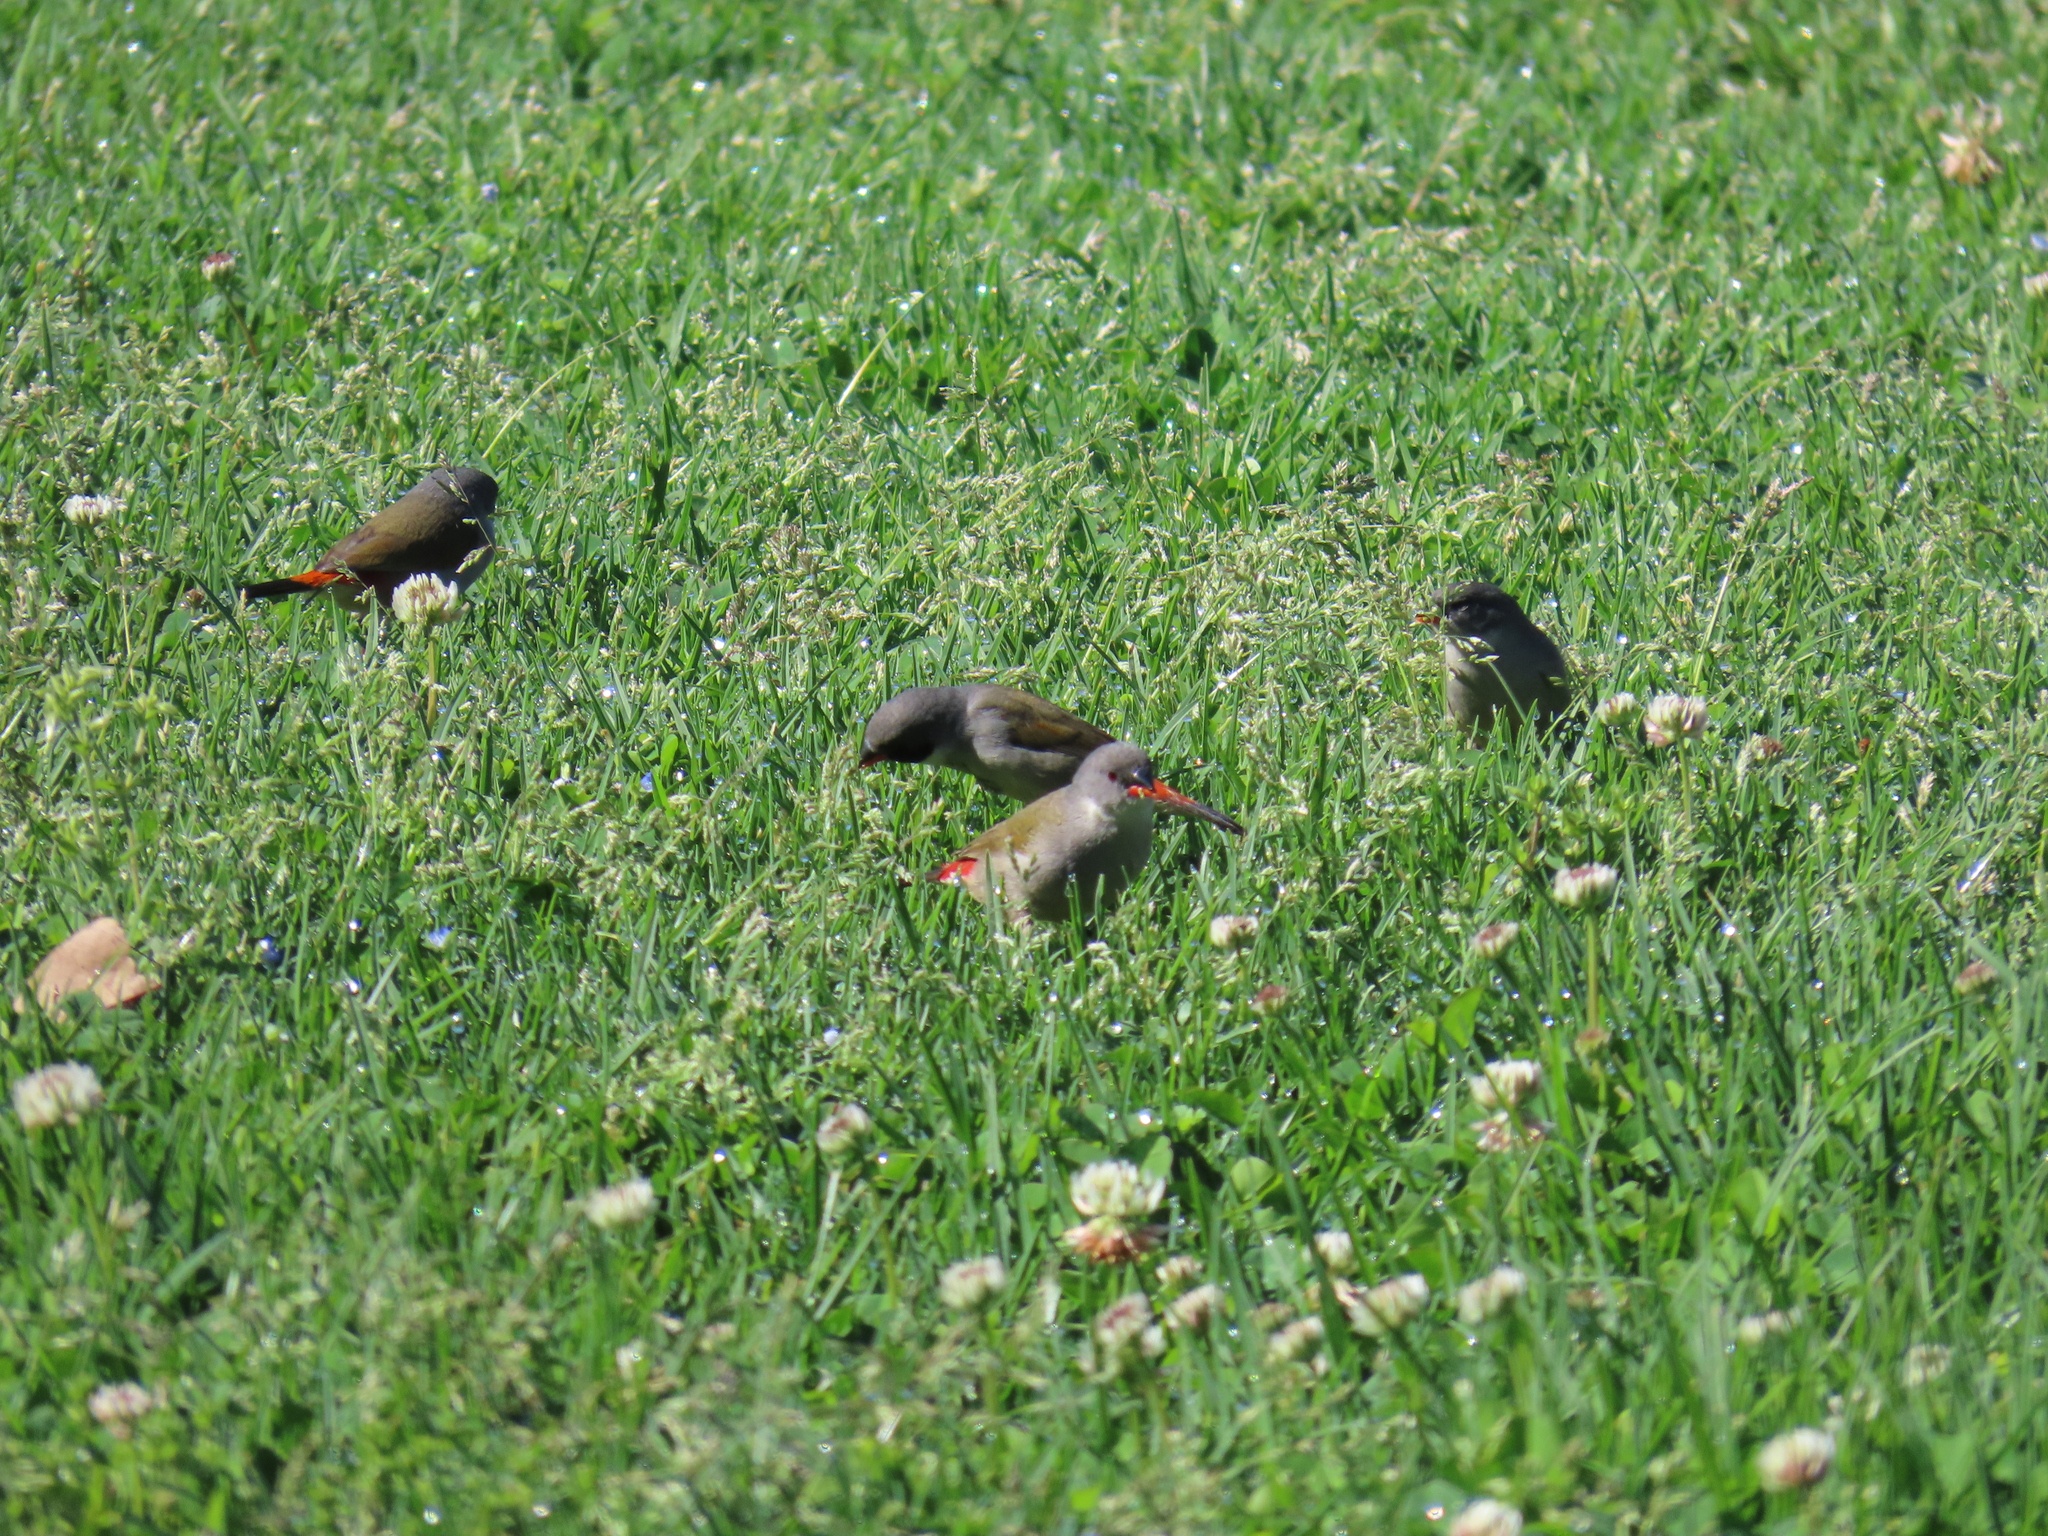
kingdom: Animalia
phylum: Chordata
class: Aves
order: Passeriformes
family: Estrildidae
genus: Coccopygia
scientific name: Coccopygia melanotis
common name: Swee waxbill
